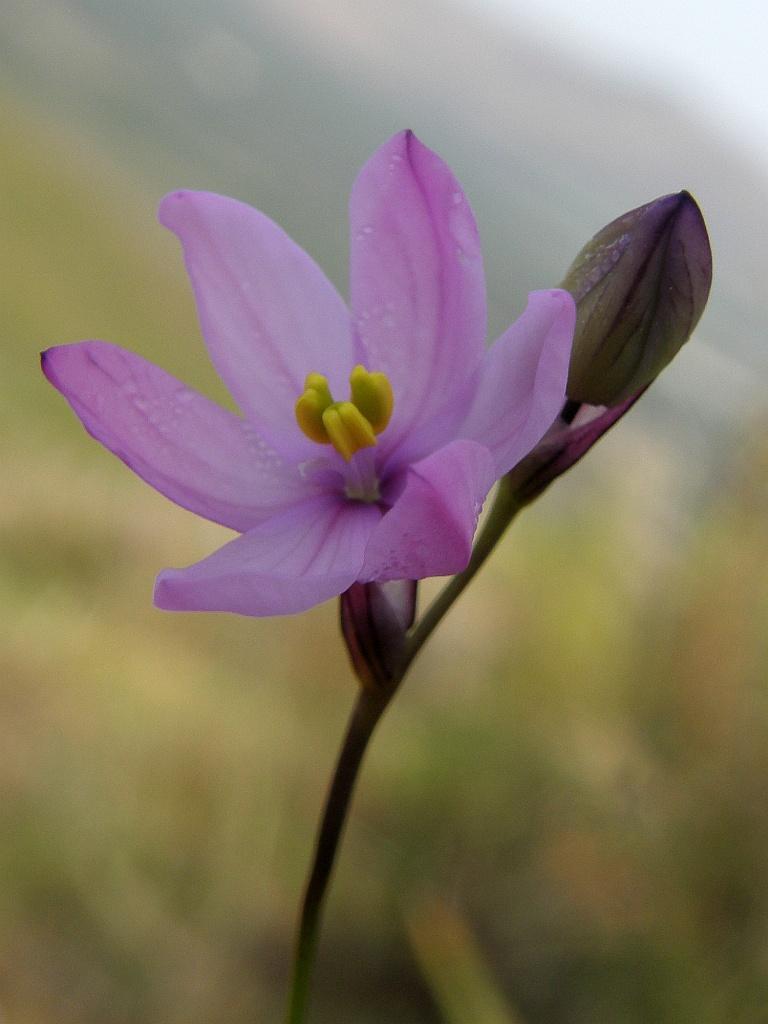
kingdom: Plantae
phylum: Tracheophyta
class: Liliopsida
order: Asparagales
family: Iridaceae
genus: Ixia
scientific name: Ixia micrandra
